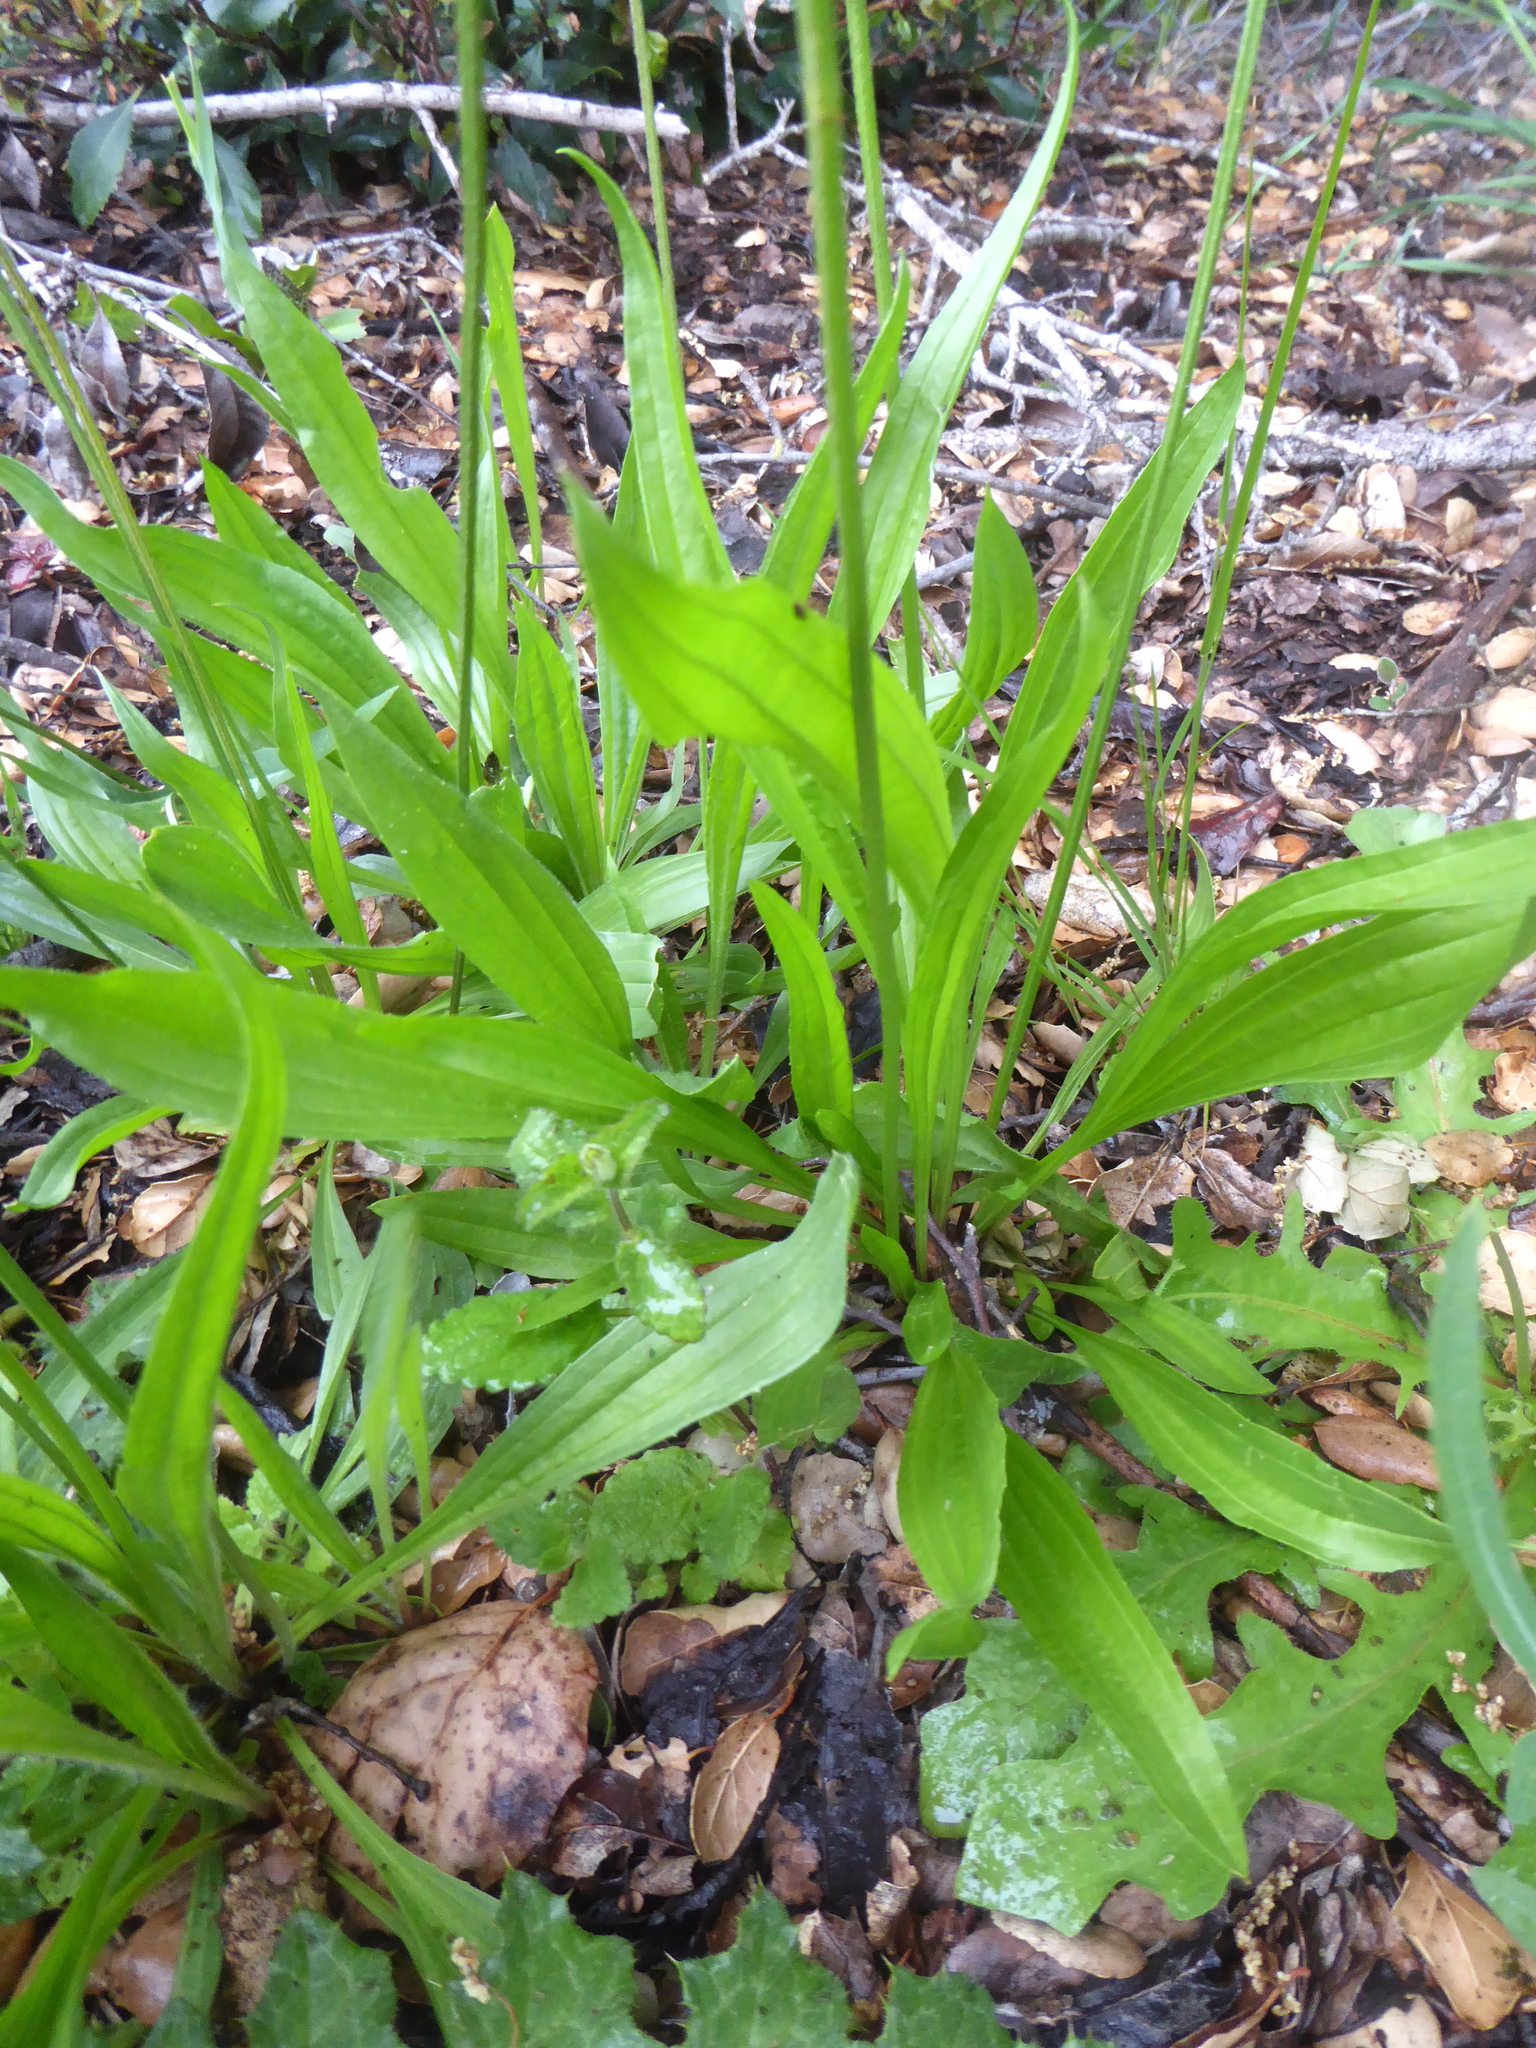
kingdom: Plantae
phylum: Tracheophyta
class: Magnoliopsida
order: Lamiales
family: Plantaginaceae
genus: Plantago
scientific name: Plantago lanceolata
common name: Ribwort plantain
